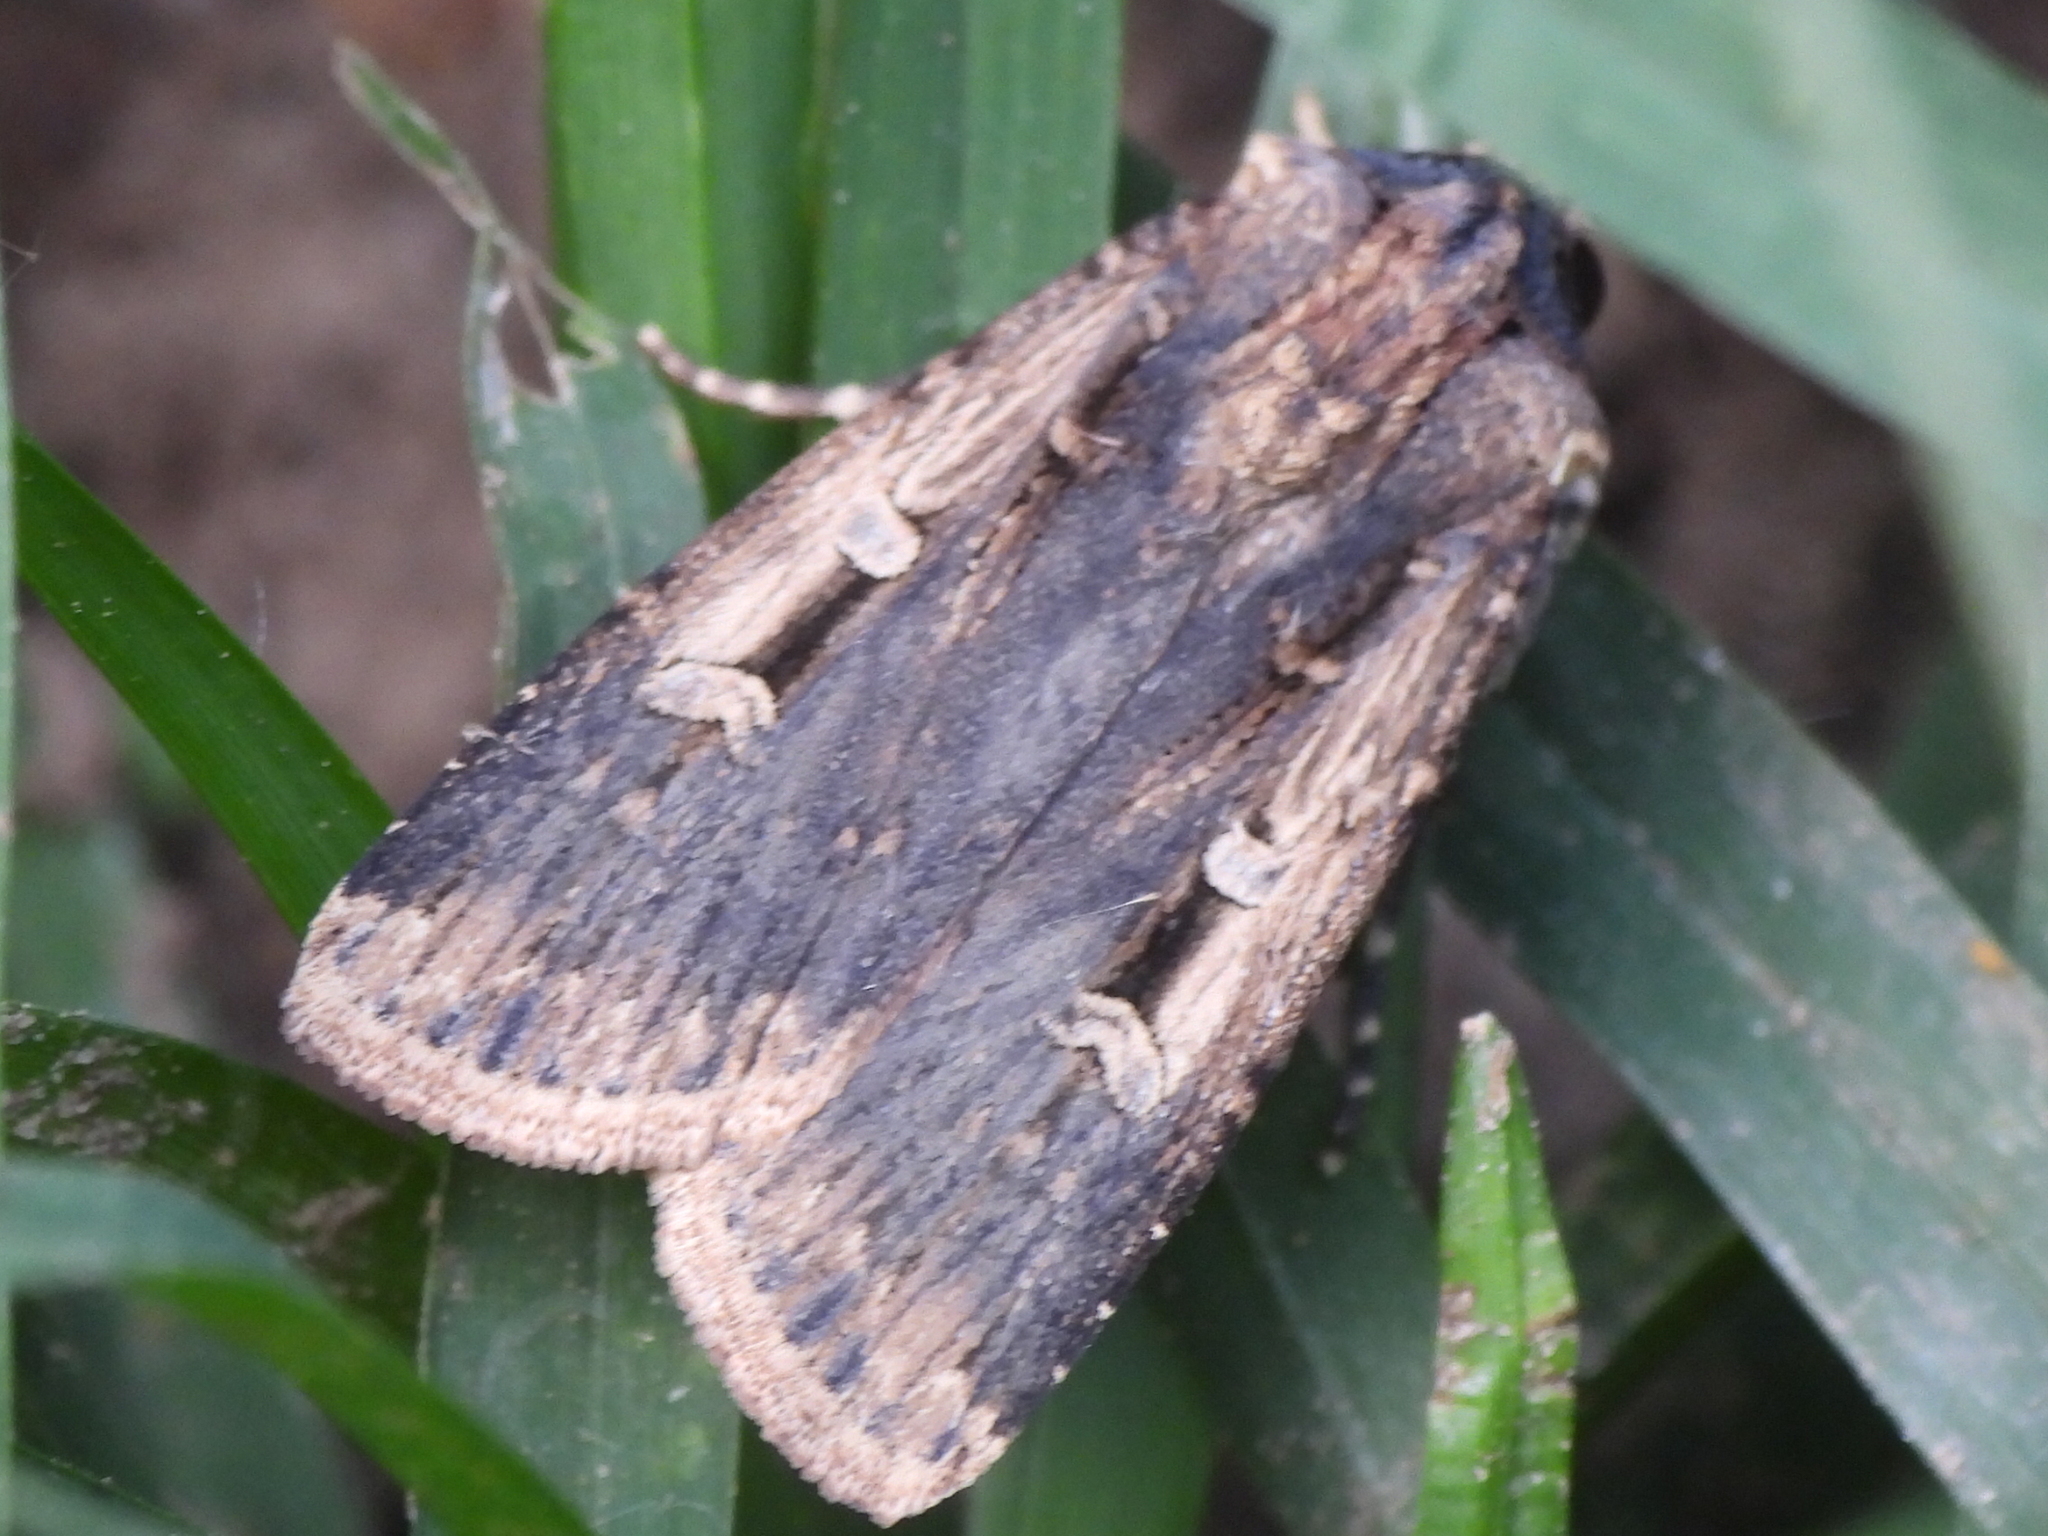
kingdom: Animalia
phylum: Arthropoda
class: Insecta
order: Lepidoptera
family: Noctuidae
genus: Feltia
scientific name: Feltia subterranea
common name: Granulate cutworm
